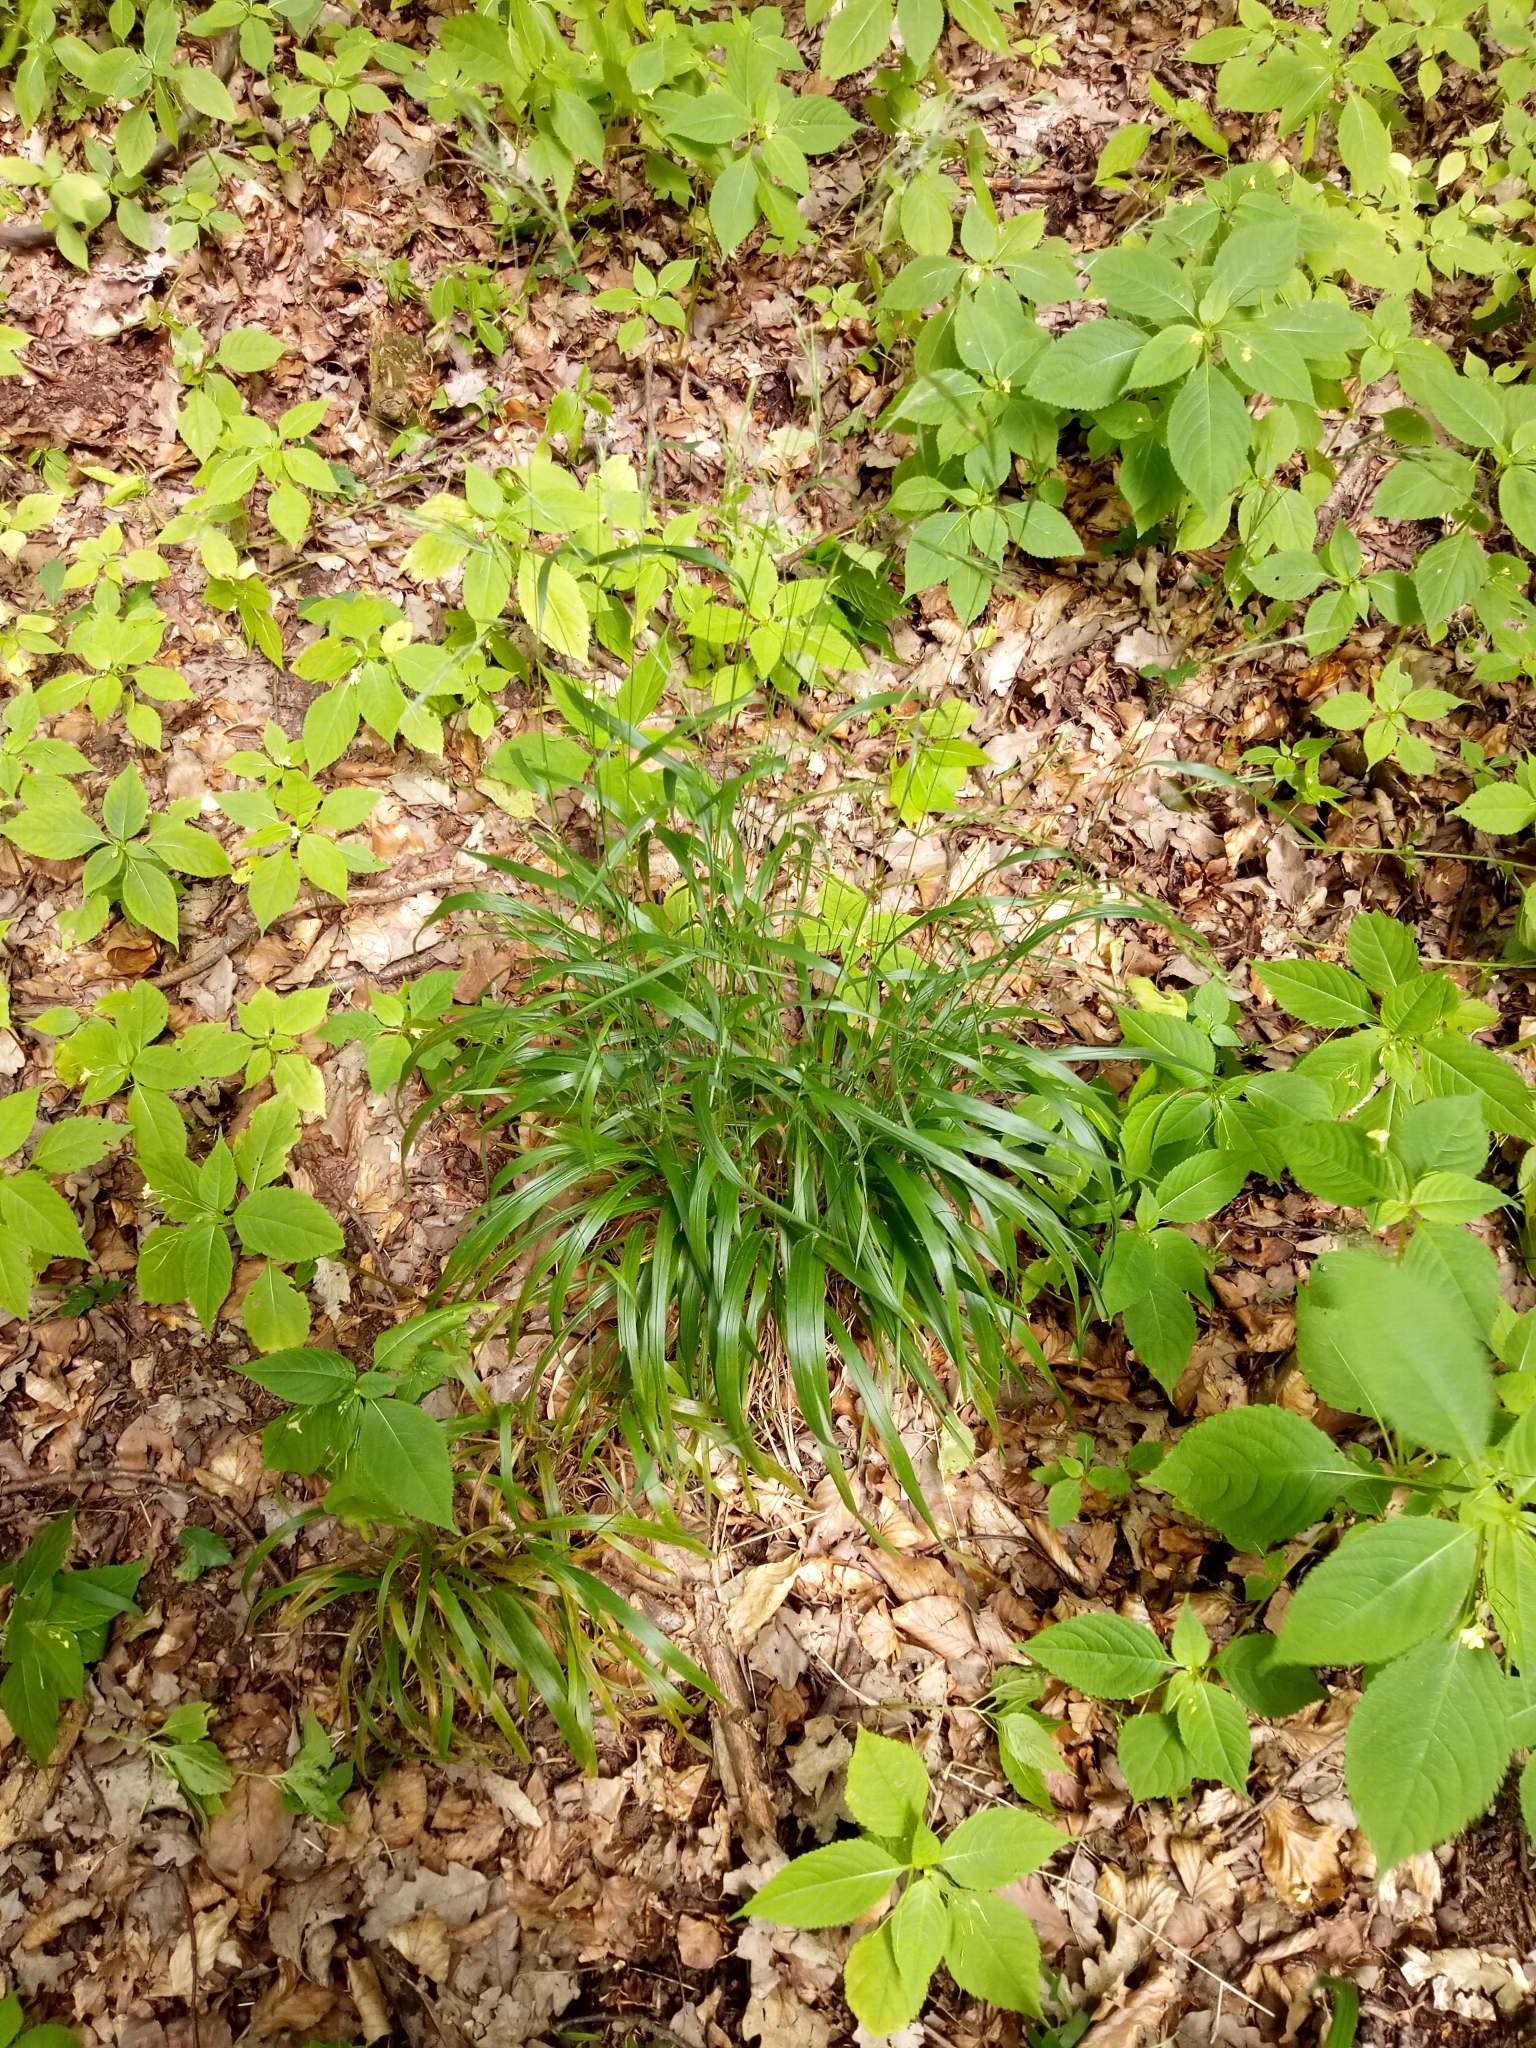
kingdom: Plantae
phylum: Tracheophyta
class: Liliopsida
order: Poales
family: Poaceae
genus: Brachypodium
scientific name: Brachypodium sylvaticum
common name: False-brome
